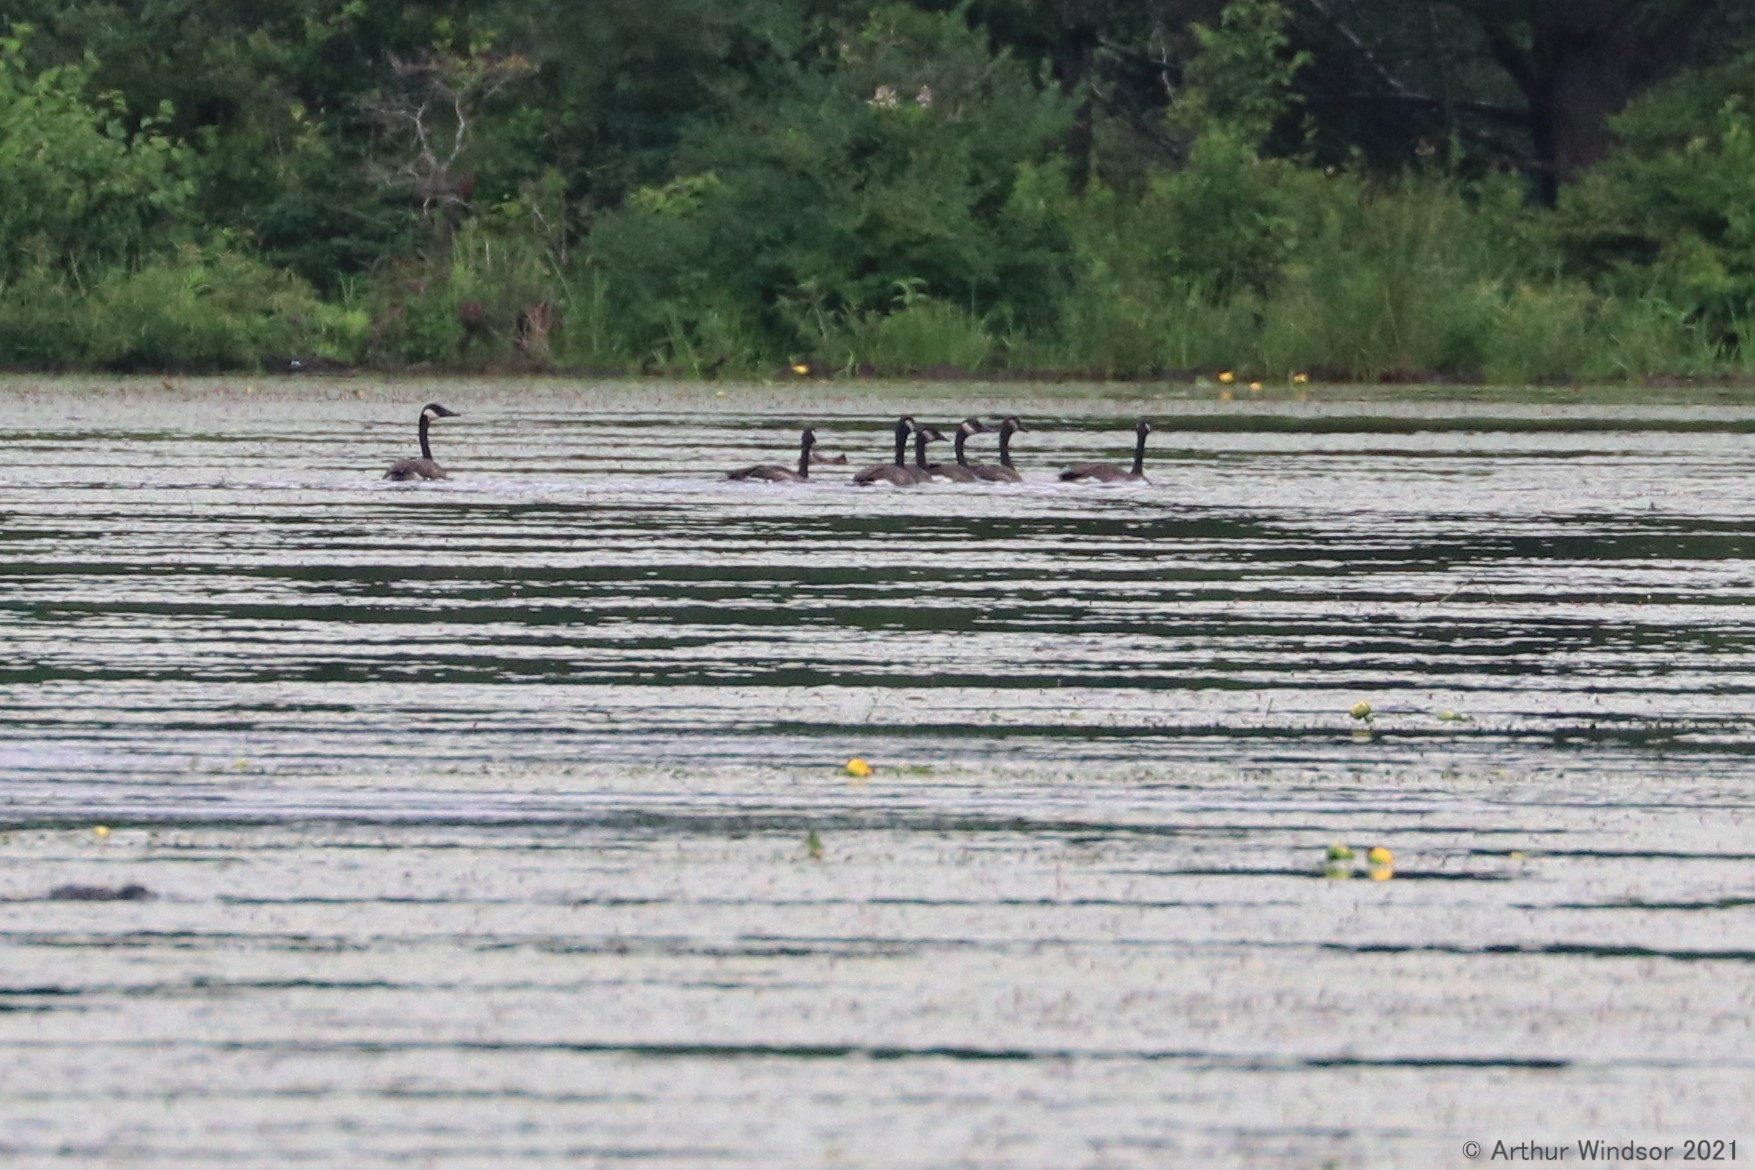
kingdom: Animalia
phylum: Chordata
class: Aves
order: Anseriformes
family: Anatidae
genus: Branta
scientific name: Branta canadensis
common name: Canada goose
